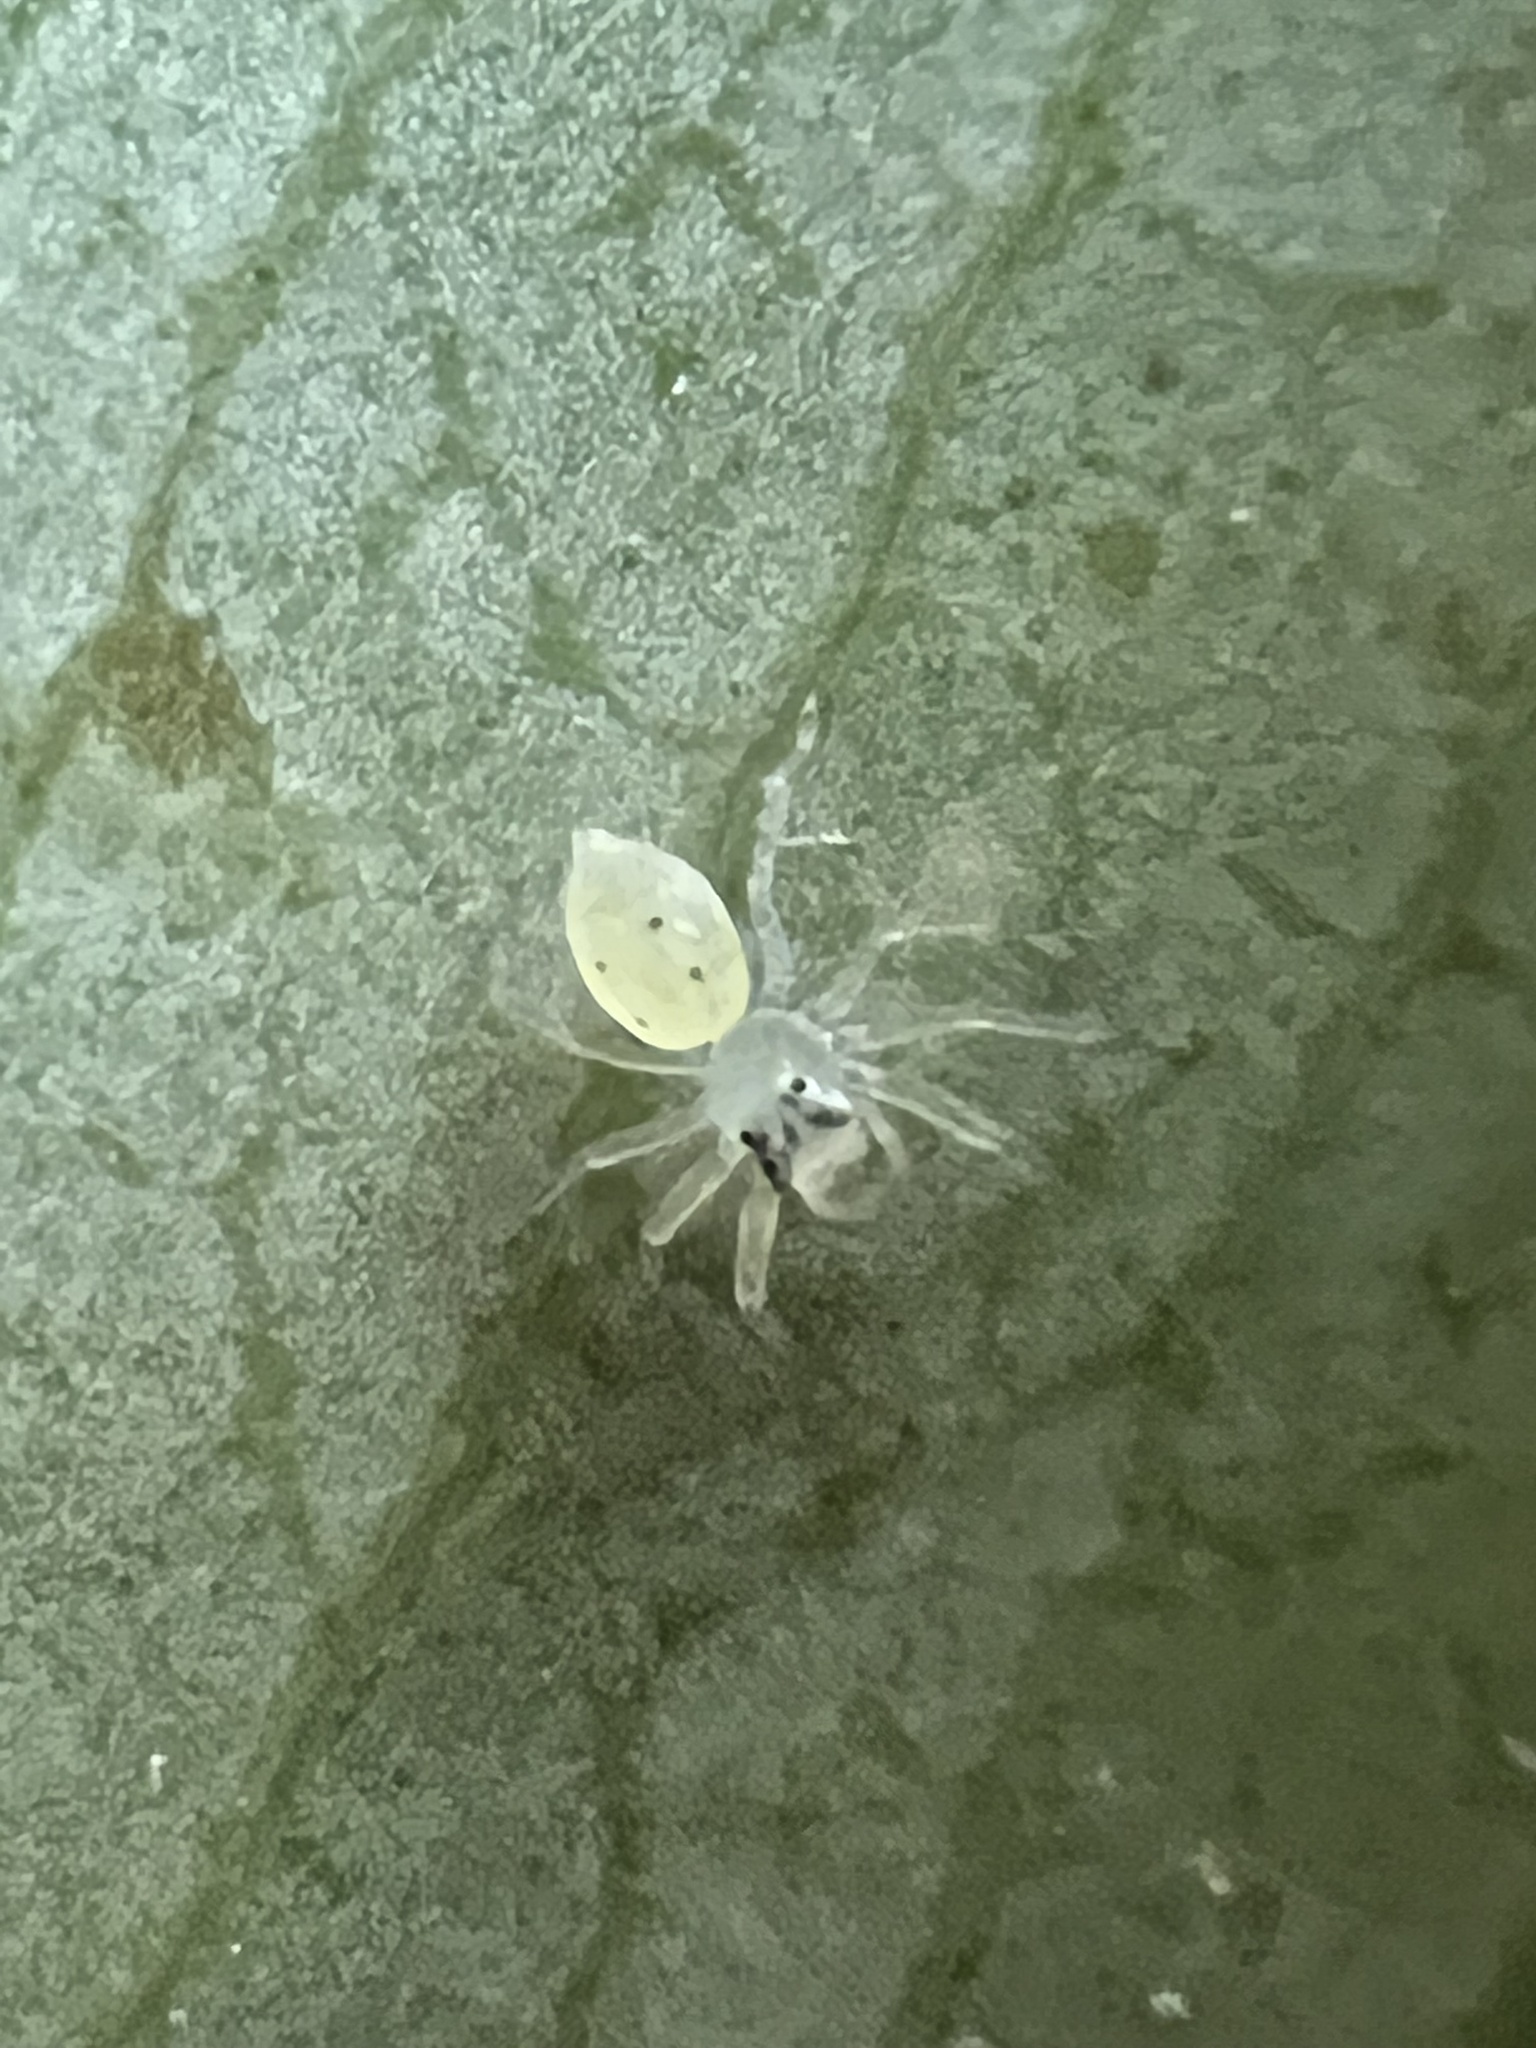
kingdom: Animalia
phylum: Arthropoda
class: Arachnida
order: Araneae
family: Salticidae
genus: Lyssomanes
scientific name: Lyssomanes viridis
